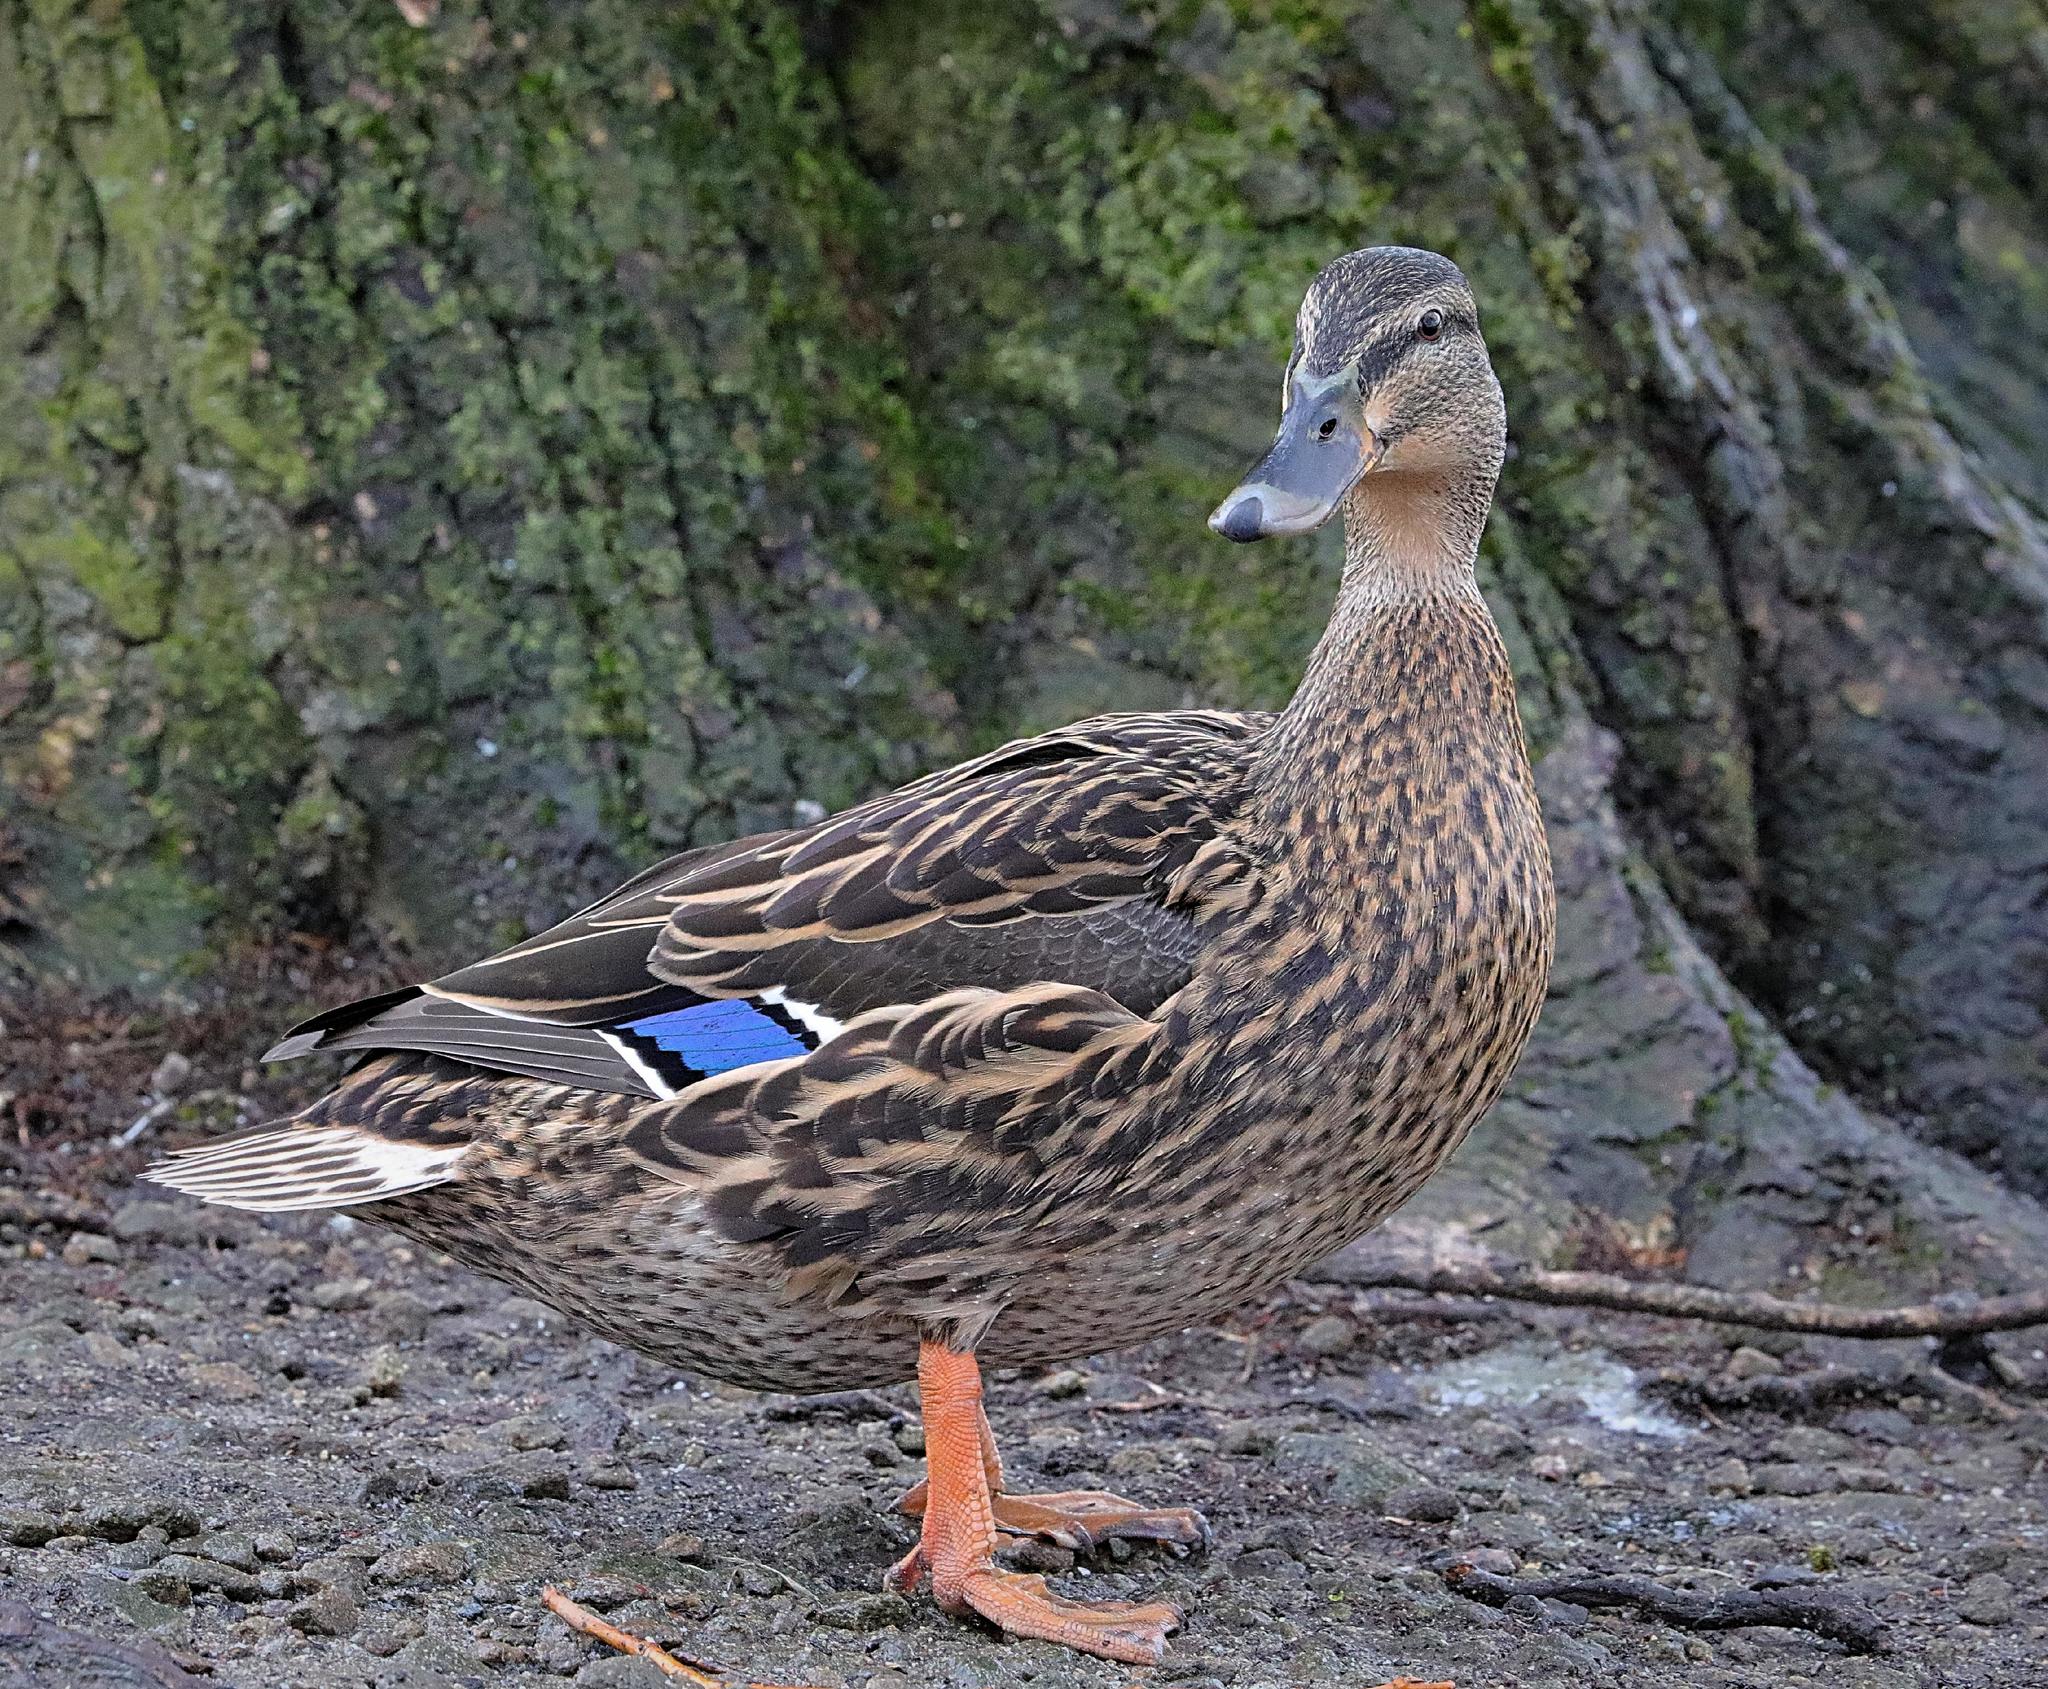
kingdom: Animalia
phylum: Chordata
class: Aves
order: Anseriformes
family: Anatidae
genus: Anas
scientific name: Anas platyrhynchos
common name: Mallard
